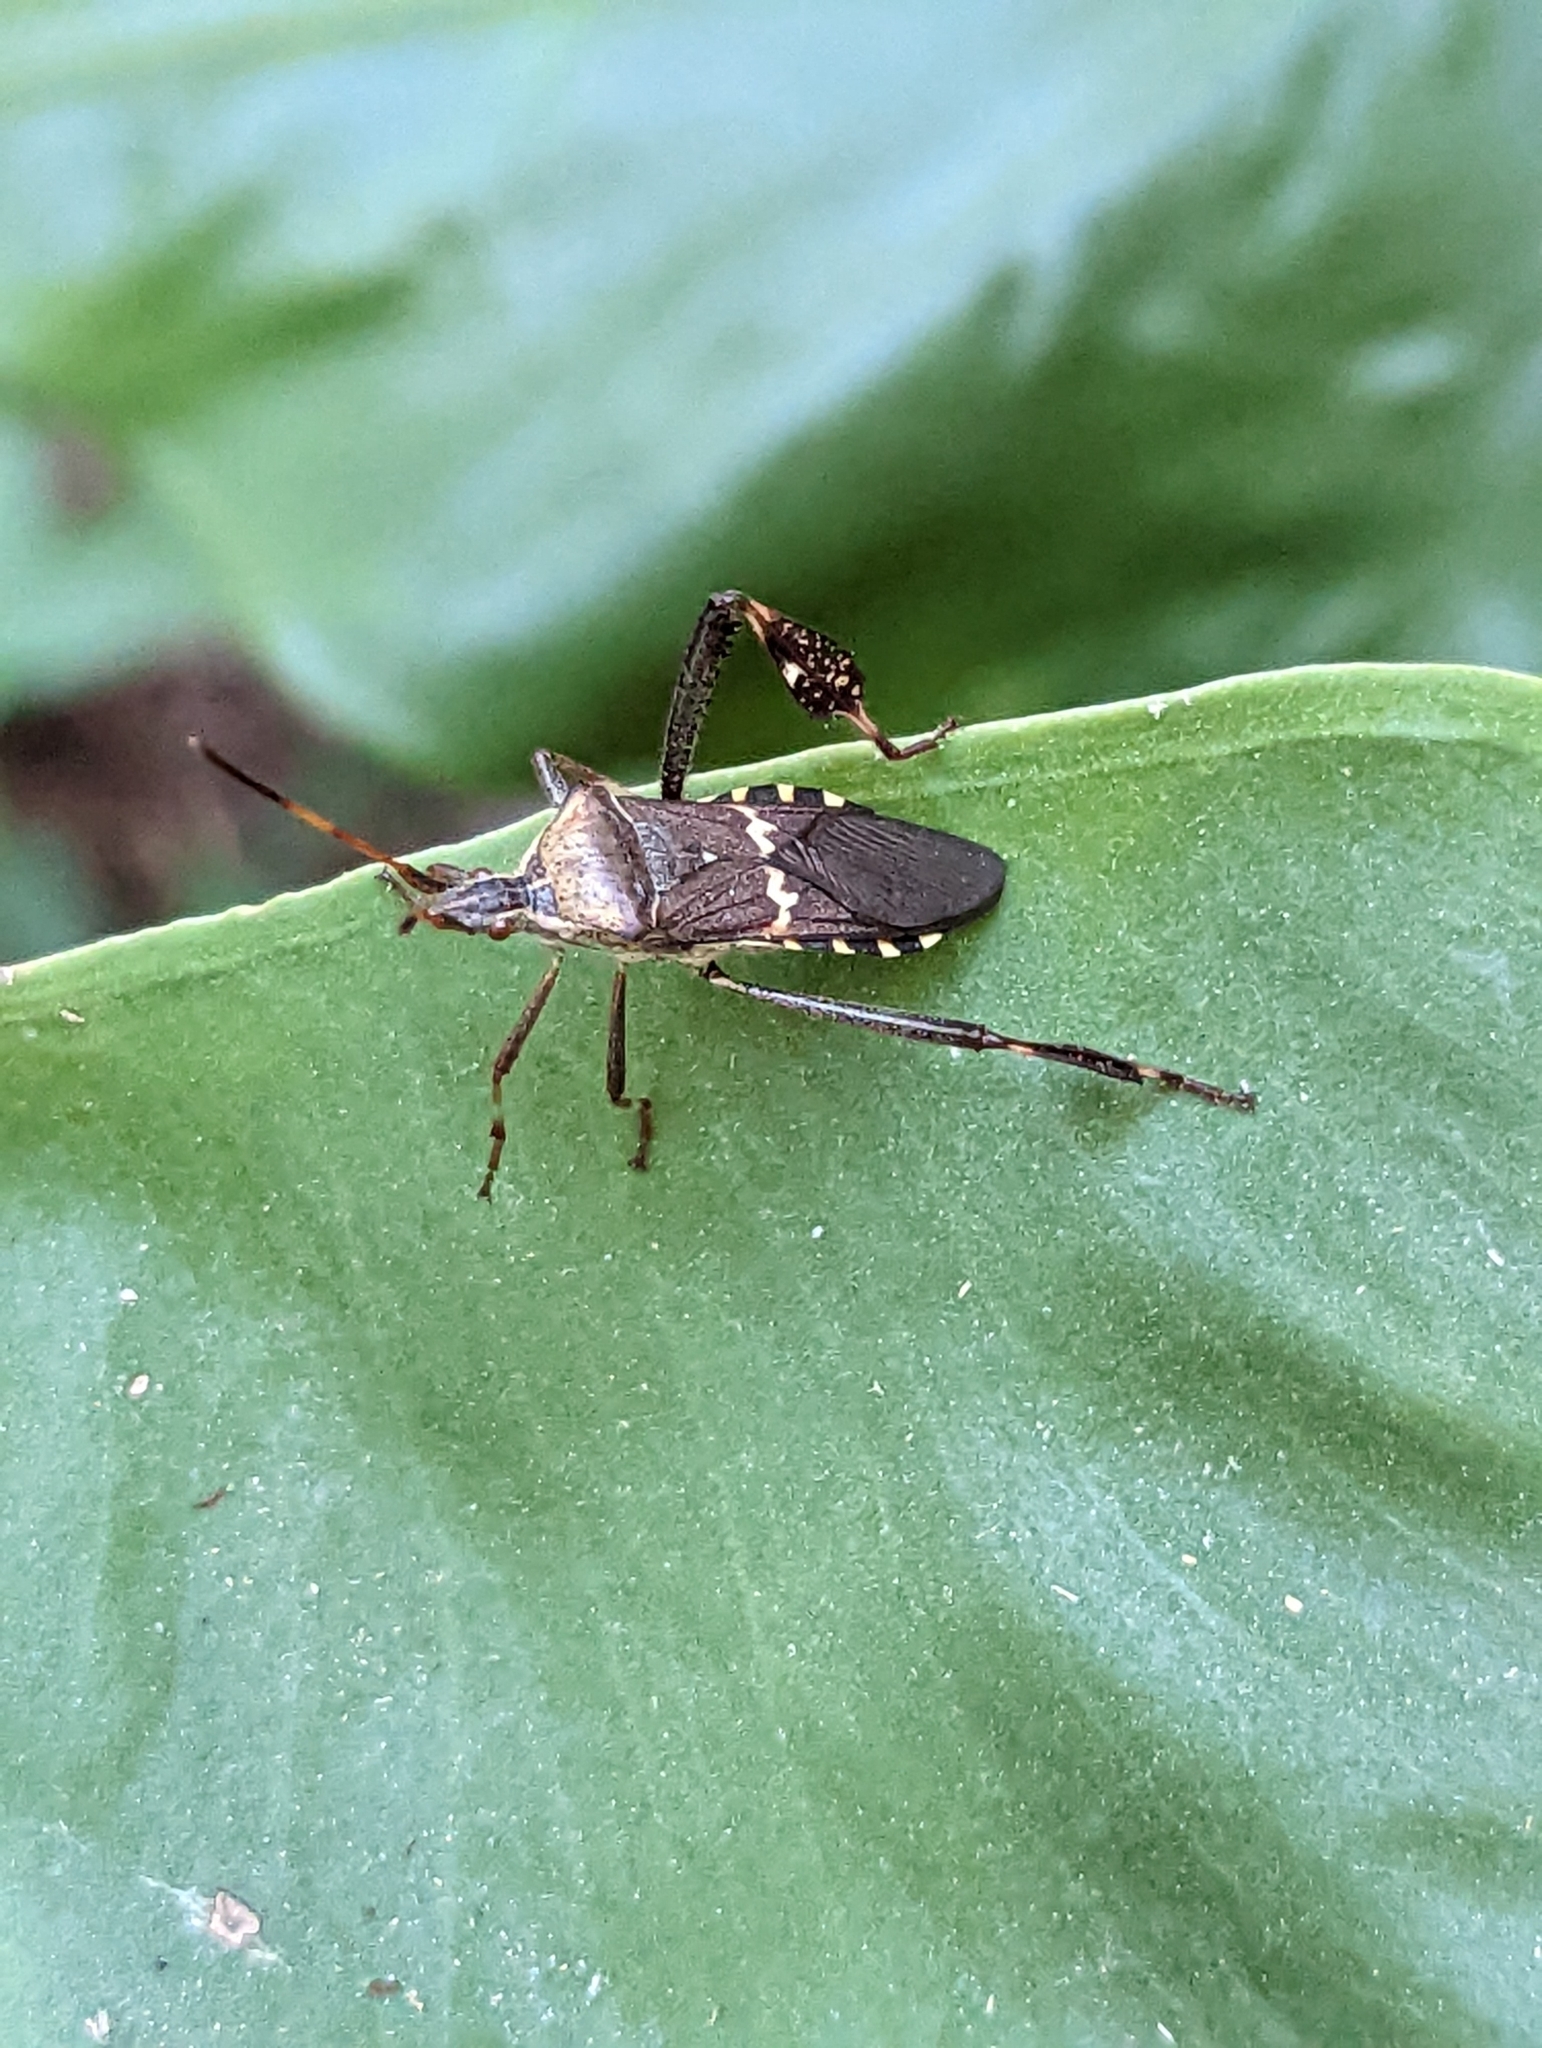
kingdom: Animalia
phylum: Arthropoda
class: Insecta
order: Hemiptera
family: Coreidae
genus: Leptoglossus
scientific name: Leptoglossus clypealis
